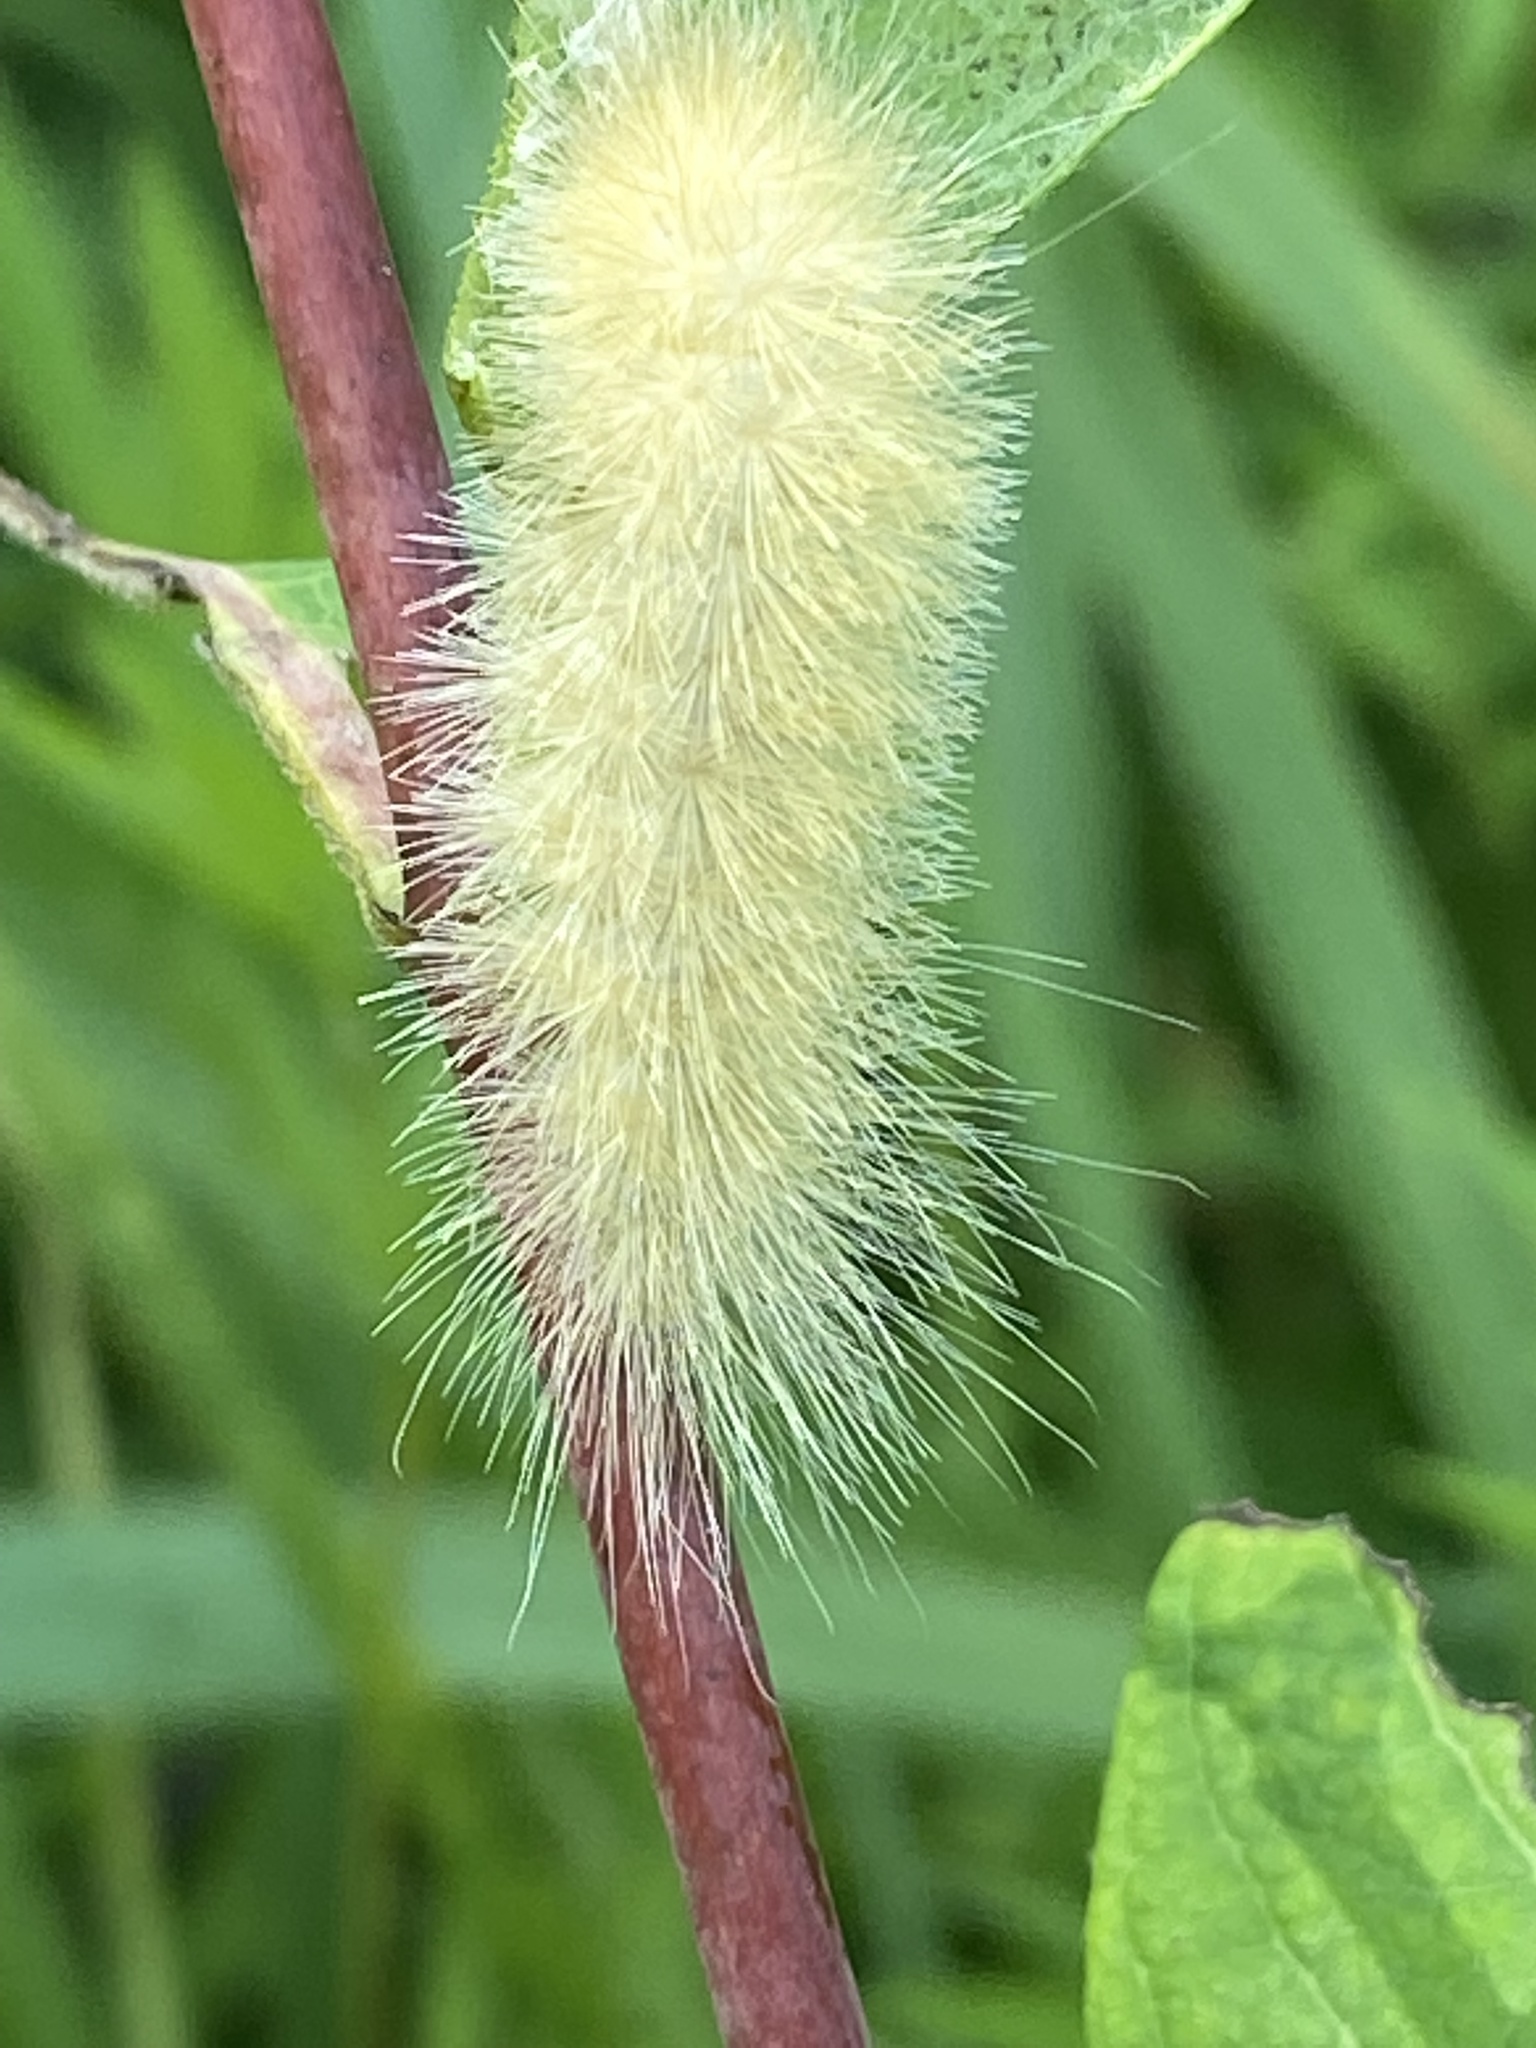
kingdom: Animalia
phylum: Arthropoda
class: Insecta
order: Lepidoptera
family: Erebidae
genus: Spilosoma
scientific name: Spilosoma virginica
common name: Virginia tiger moth
